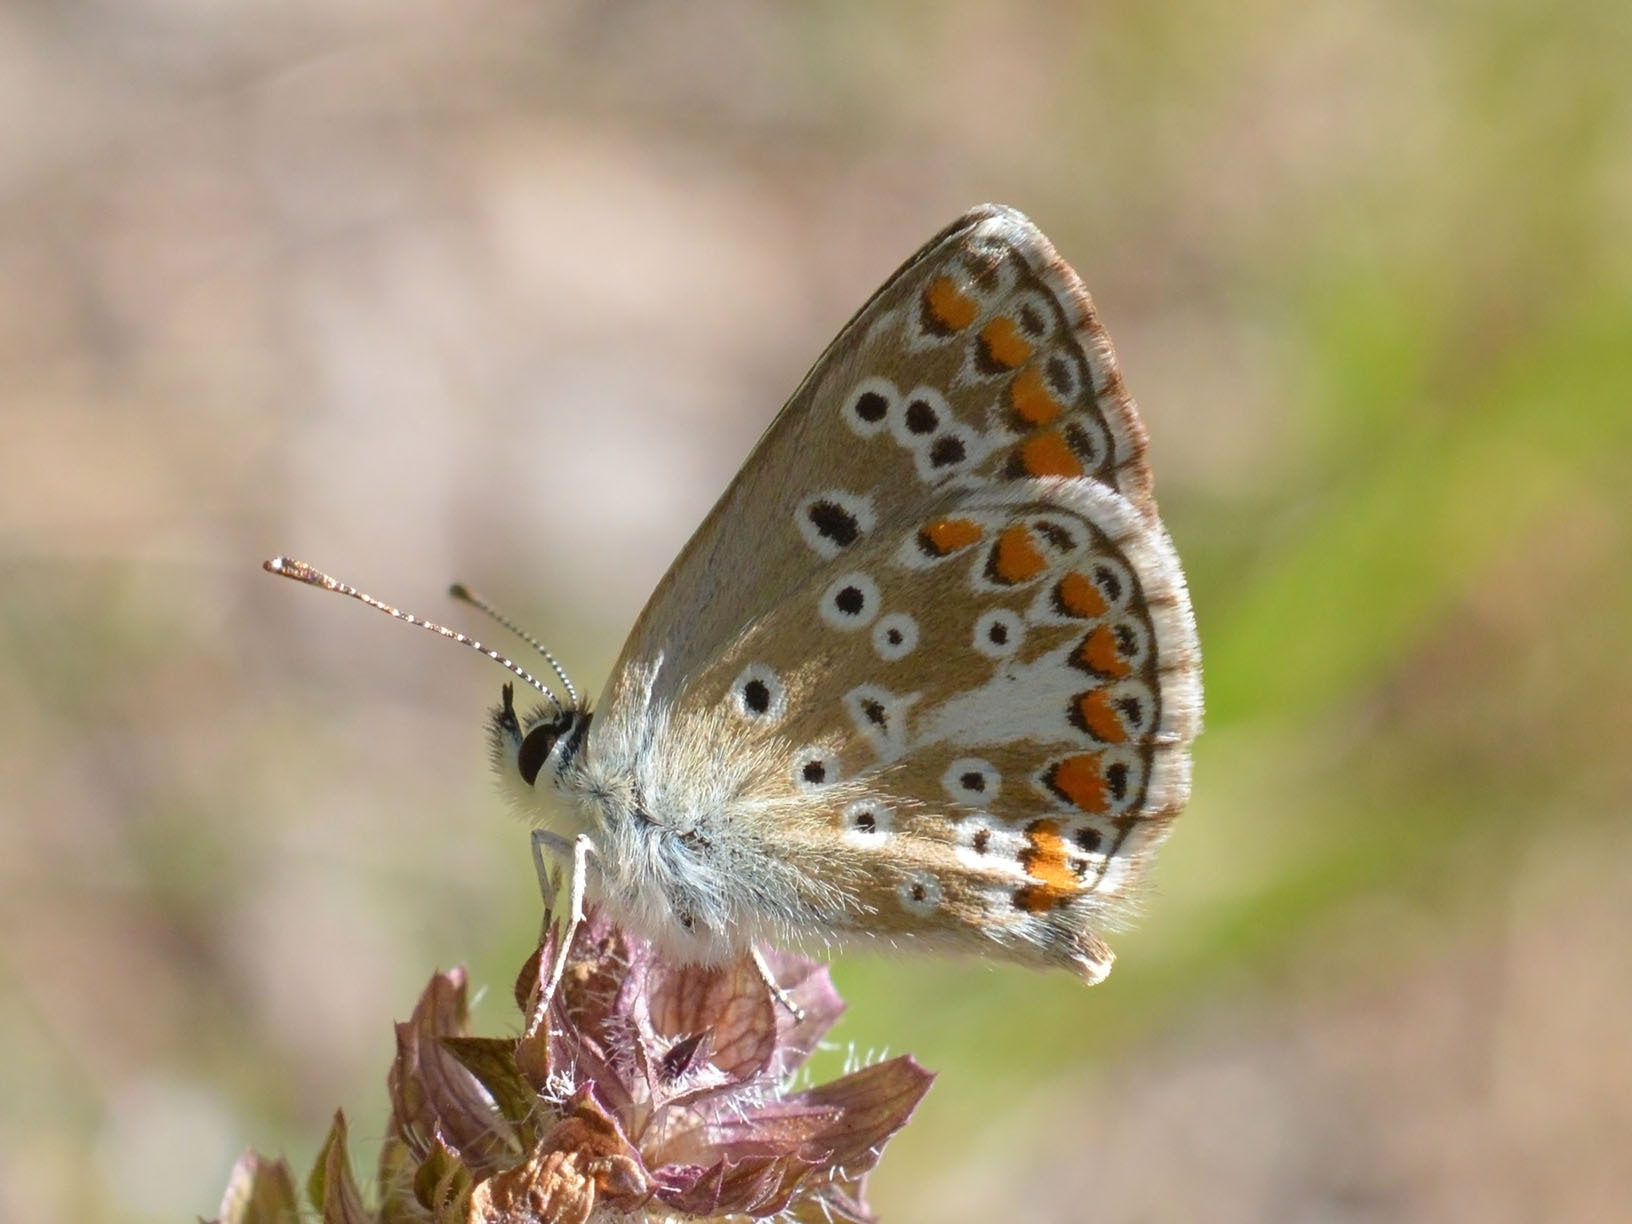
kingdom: Animalia
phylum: Arthropoda
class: Insecta
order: Lepidoptera
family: Lycaenidae
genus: Aricia
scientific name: Aricia agestis
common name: Brown argus
